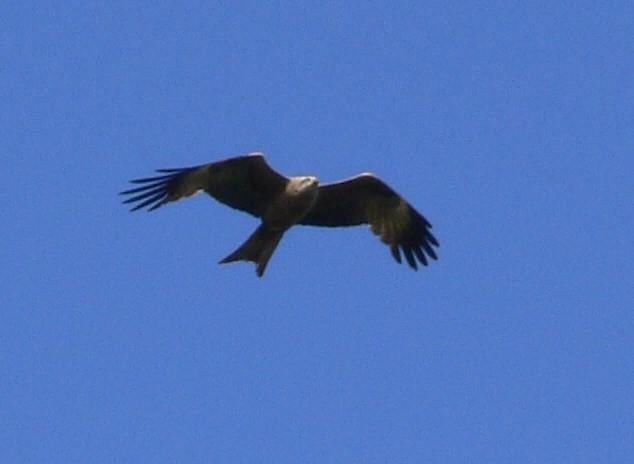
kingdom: Animalia
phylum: Chordata
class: Aves
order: Accipitriformes
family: Accipitridae
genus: Milvus
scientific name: Milvus migrans
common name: Black kite
